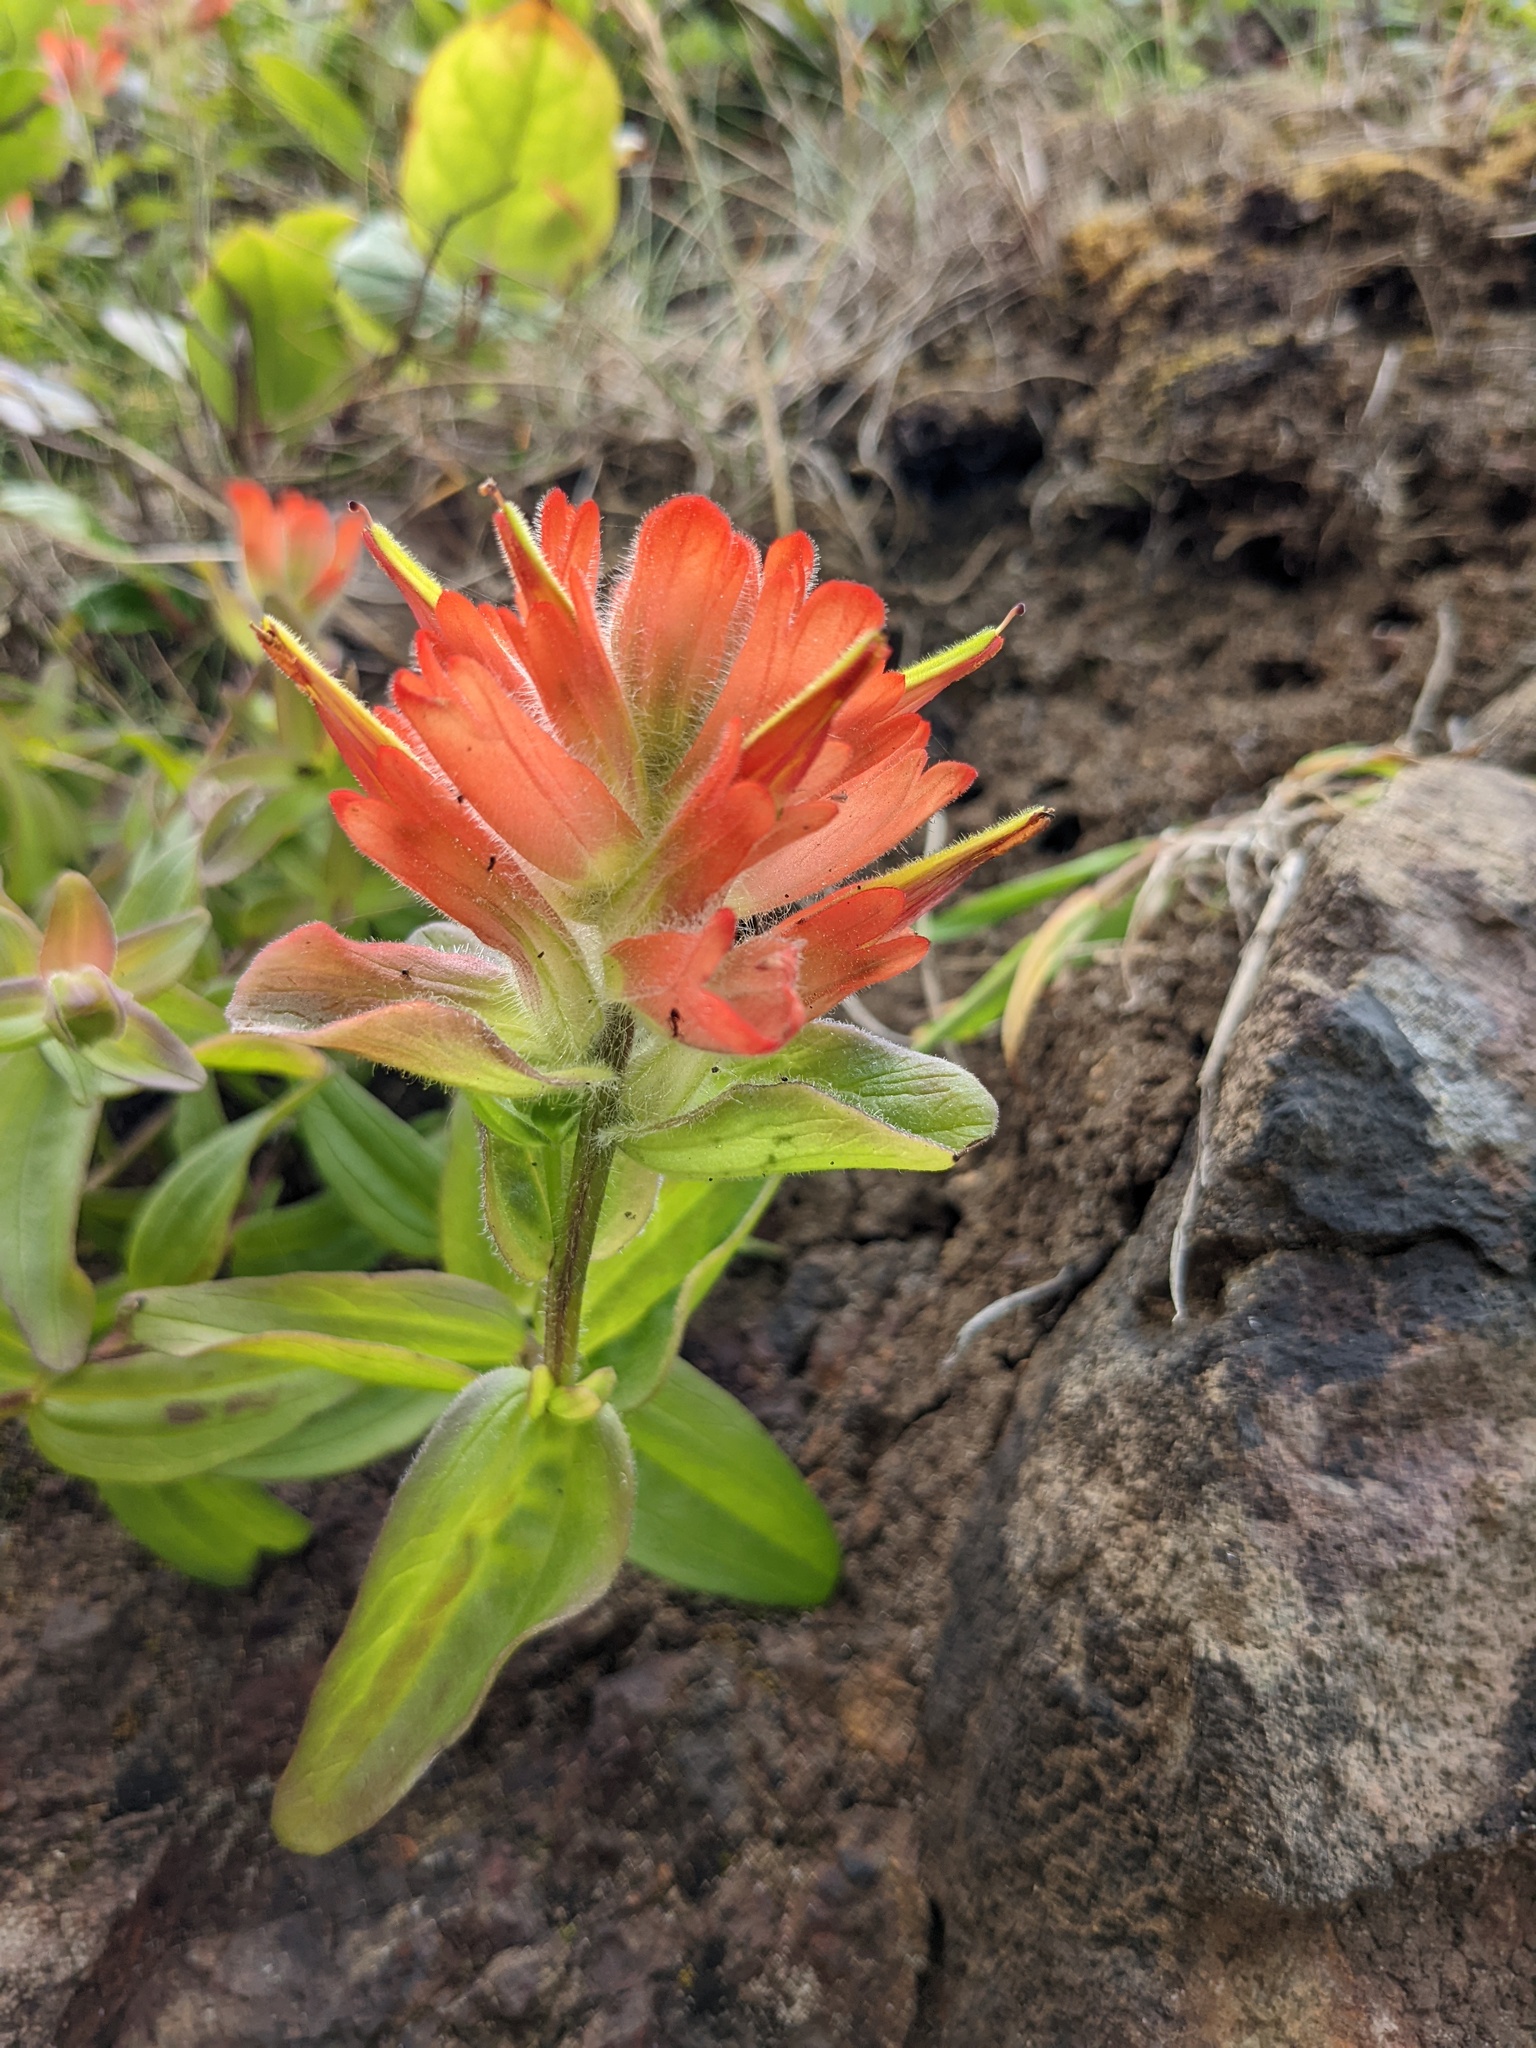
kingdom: Plantae
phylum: Tracheophyta
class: Magnoliopsida
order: Lamiales
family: Orobanchaceae
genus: Castilleja
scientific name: Castilleja litoralis
